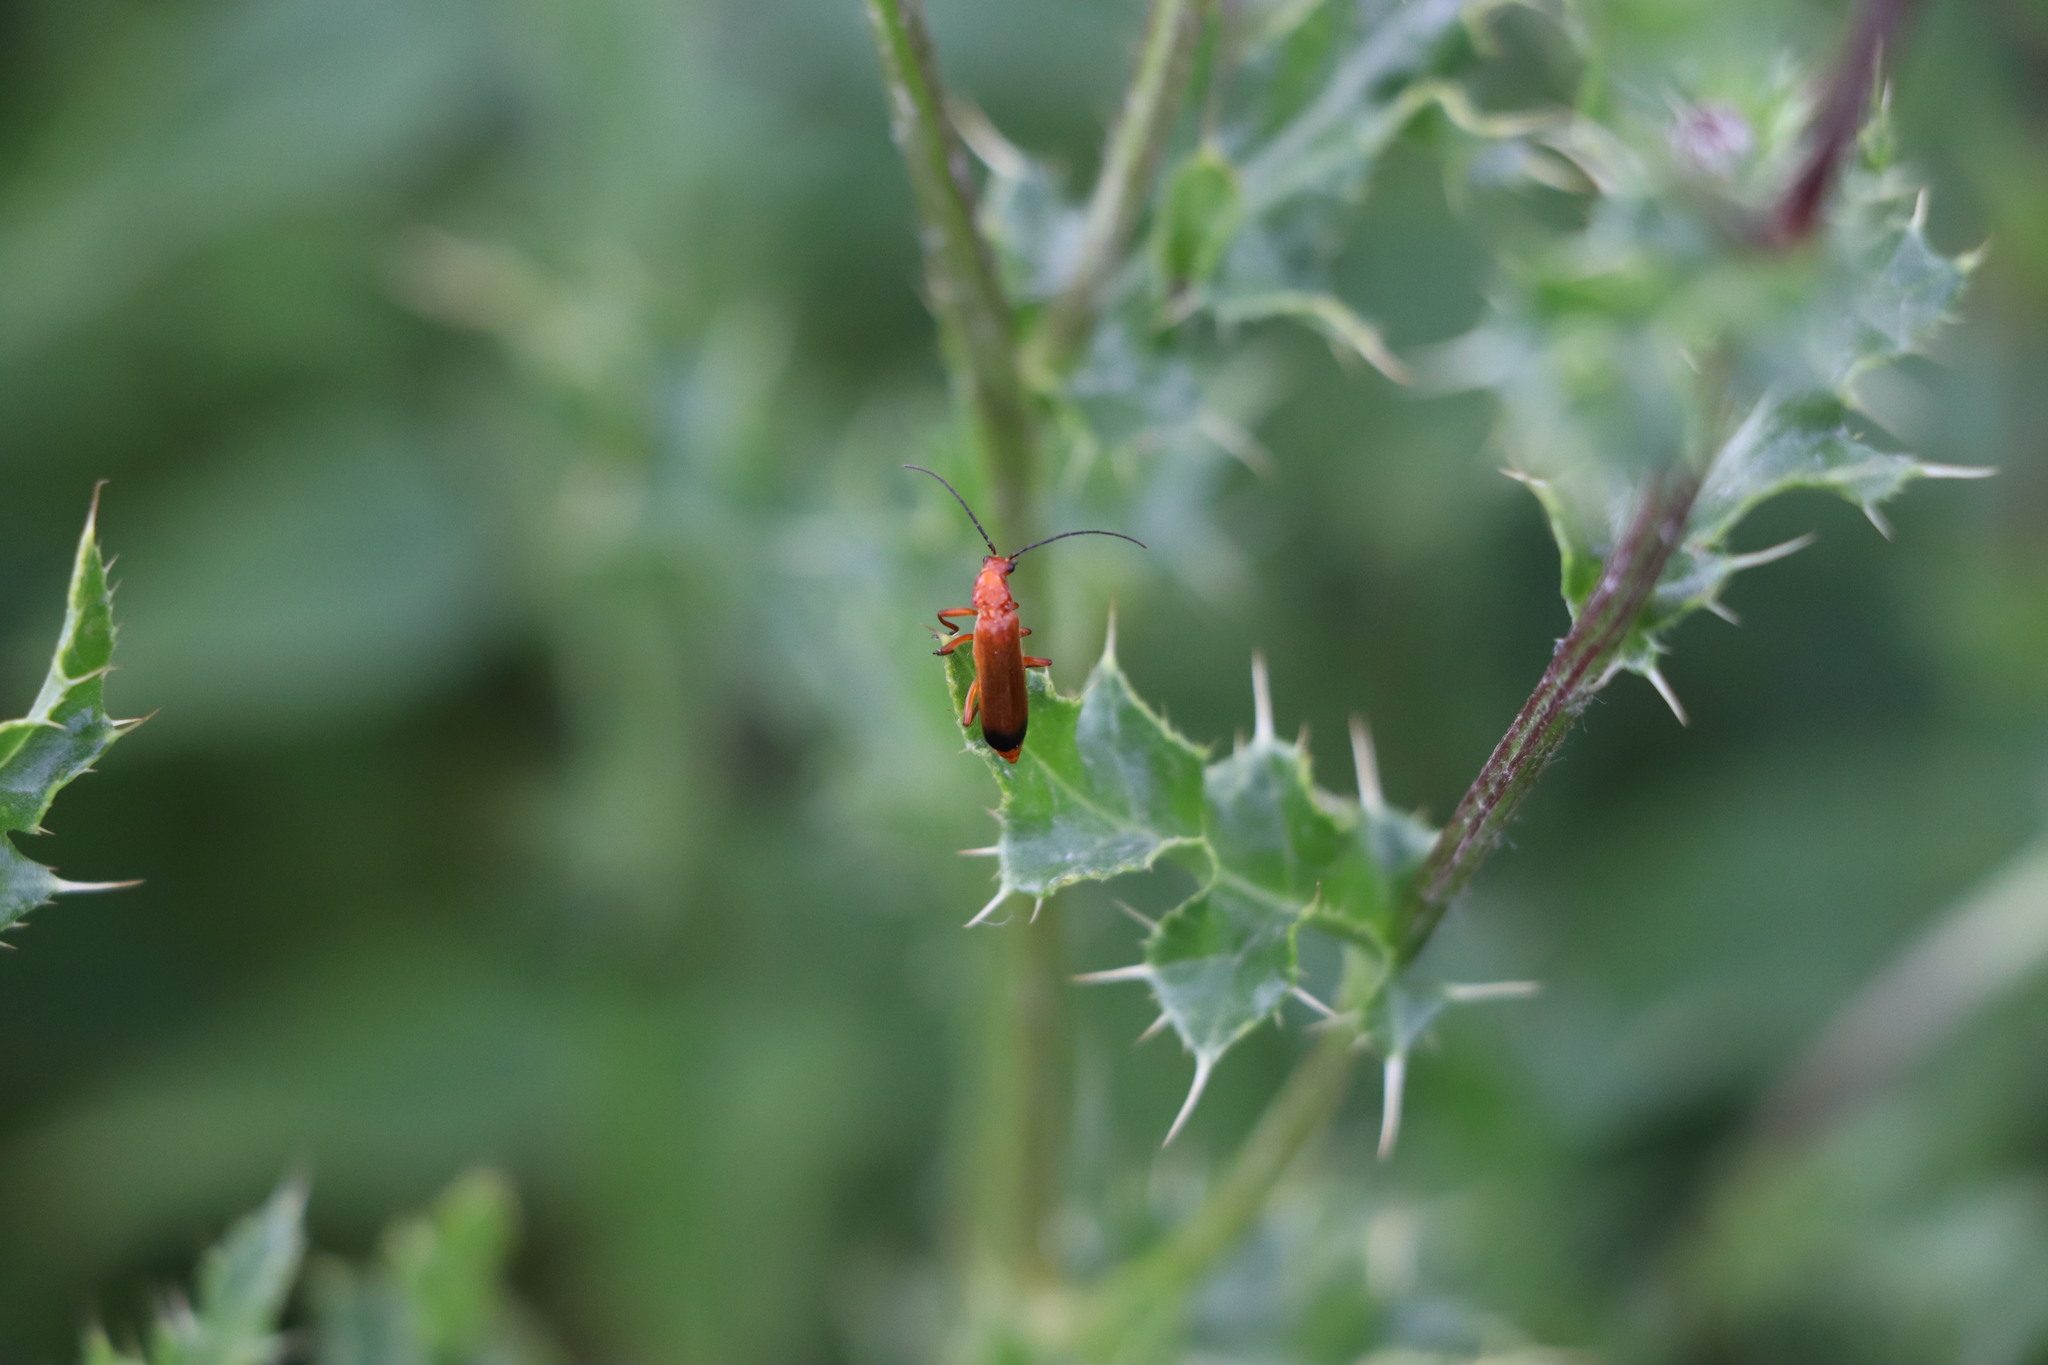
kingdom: Animalia
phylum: Arthropoda
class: Insecta
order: Coleoptera
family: Cantharidae
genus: Rhagonycha
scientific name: Rhagonycha fulva
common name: Common red soldier beetle
